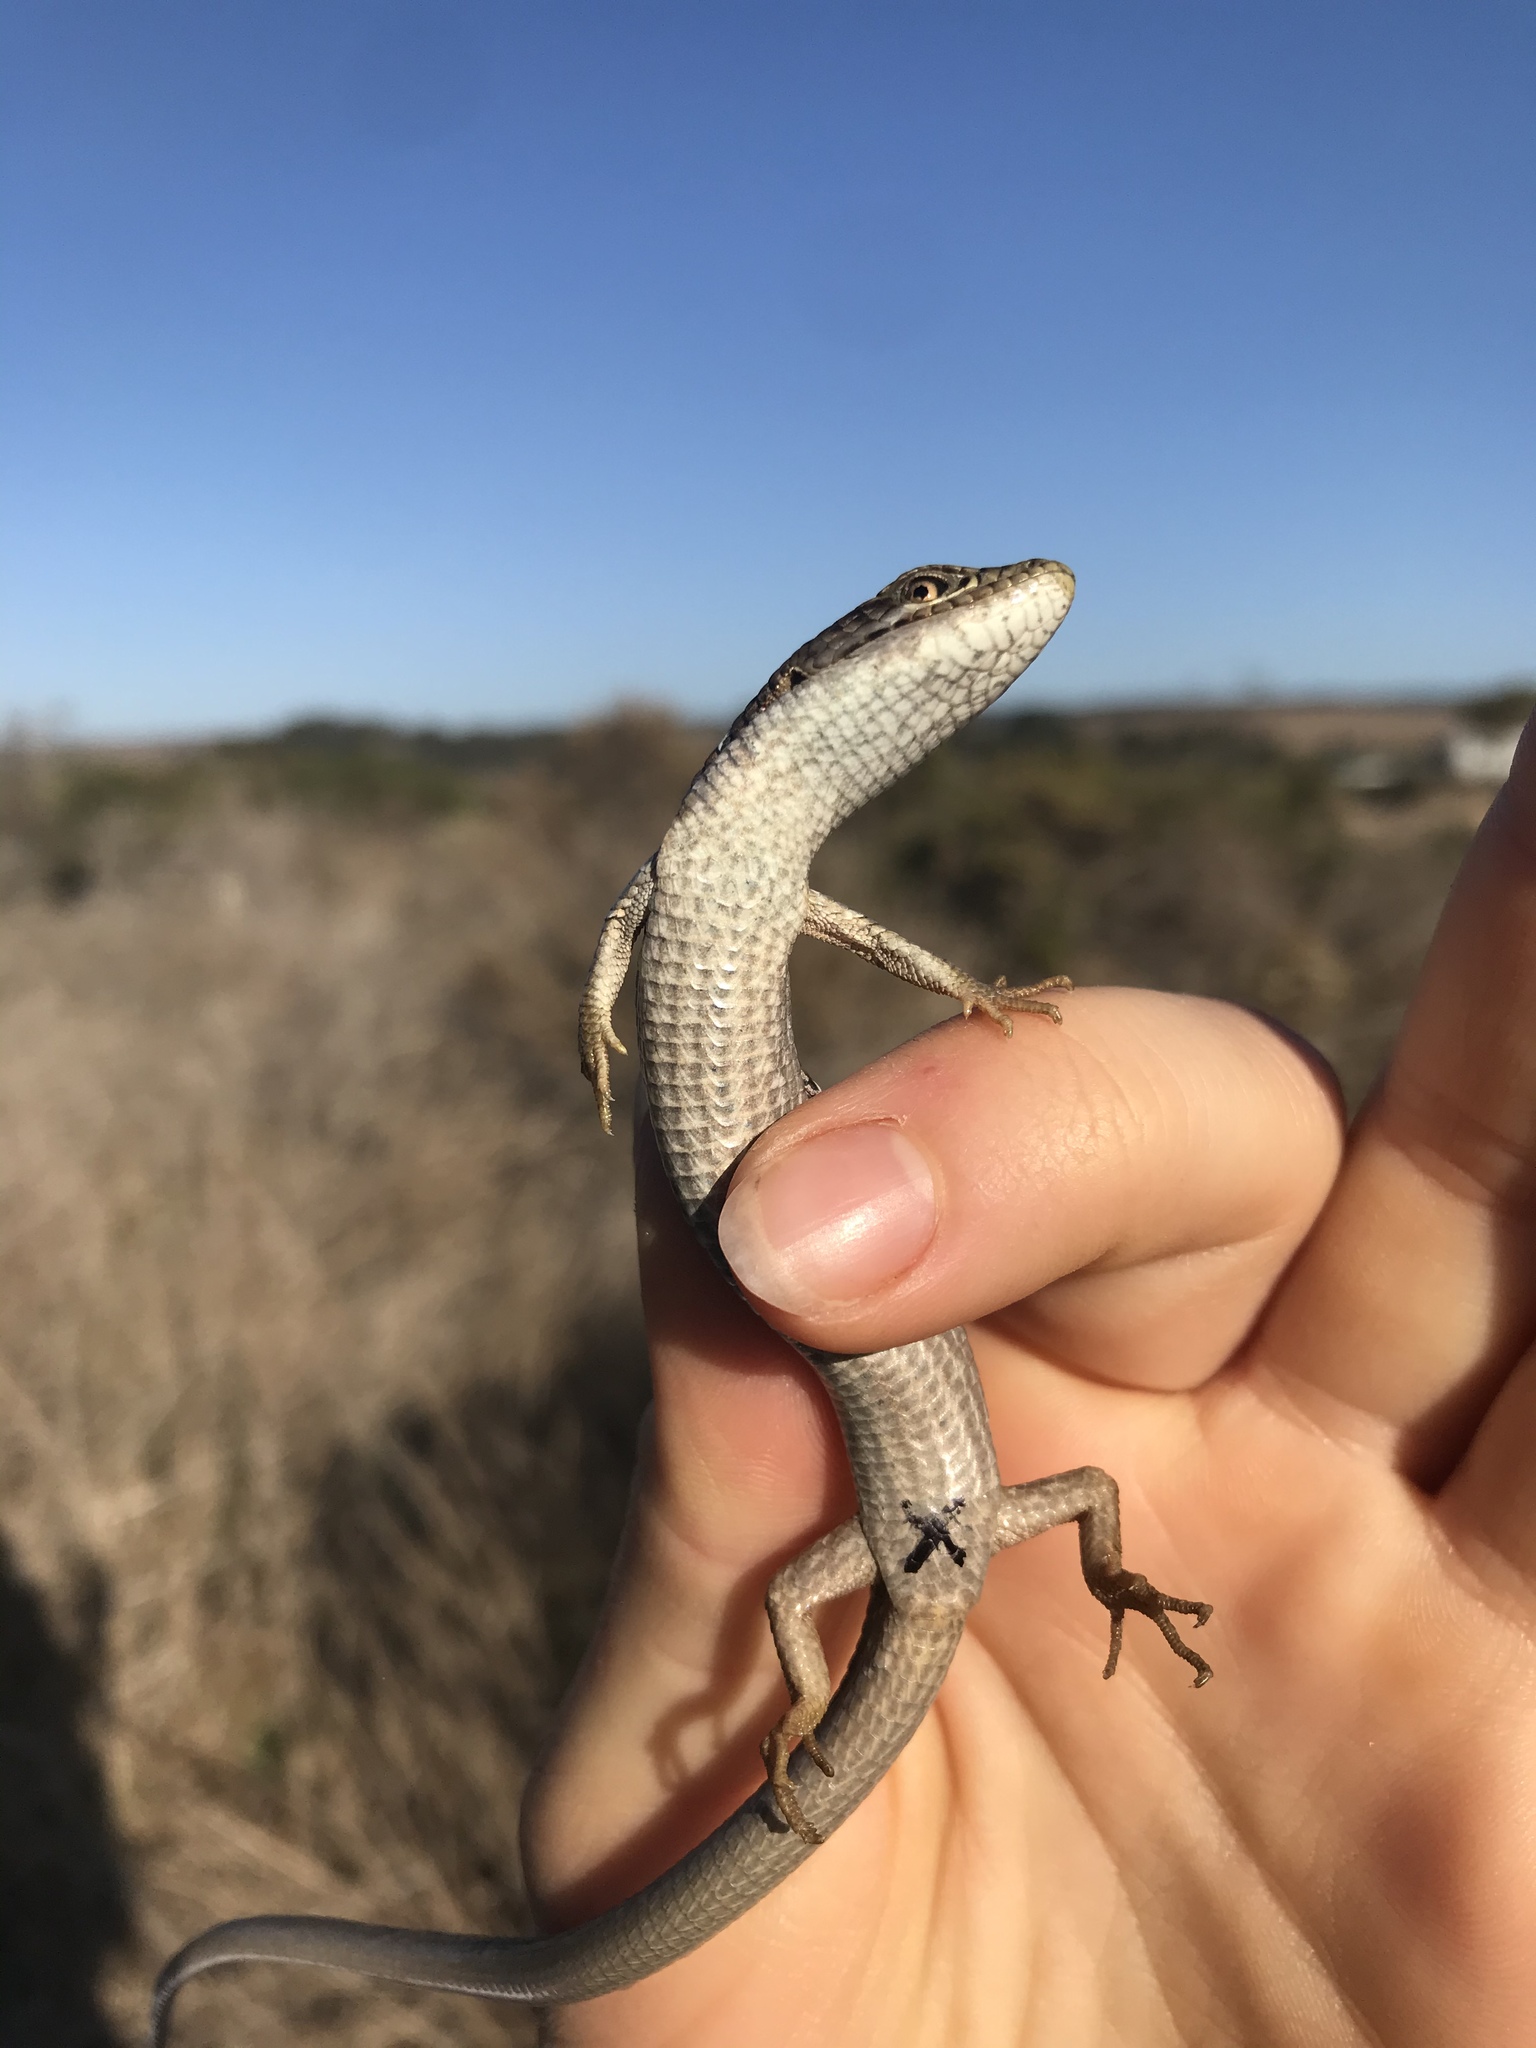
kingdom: Animalia
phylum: Chordata
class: Squamata
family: Anguidae
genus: Elgaria
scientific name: Elgaria multicarinata
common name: Southern alligator lizard
